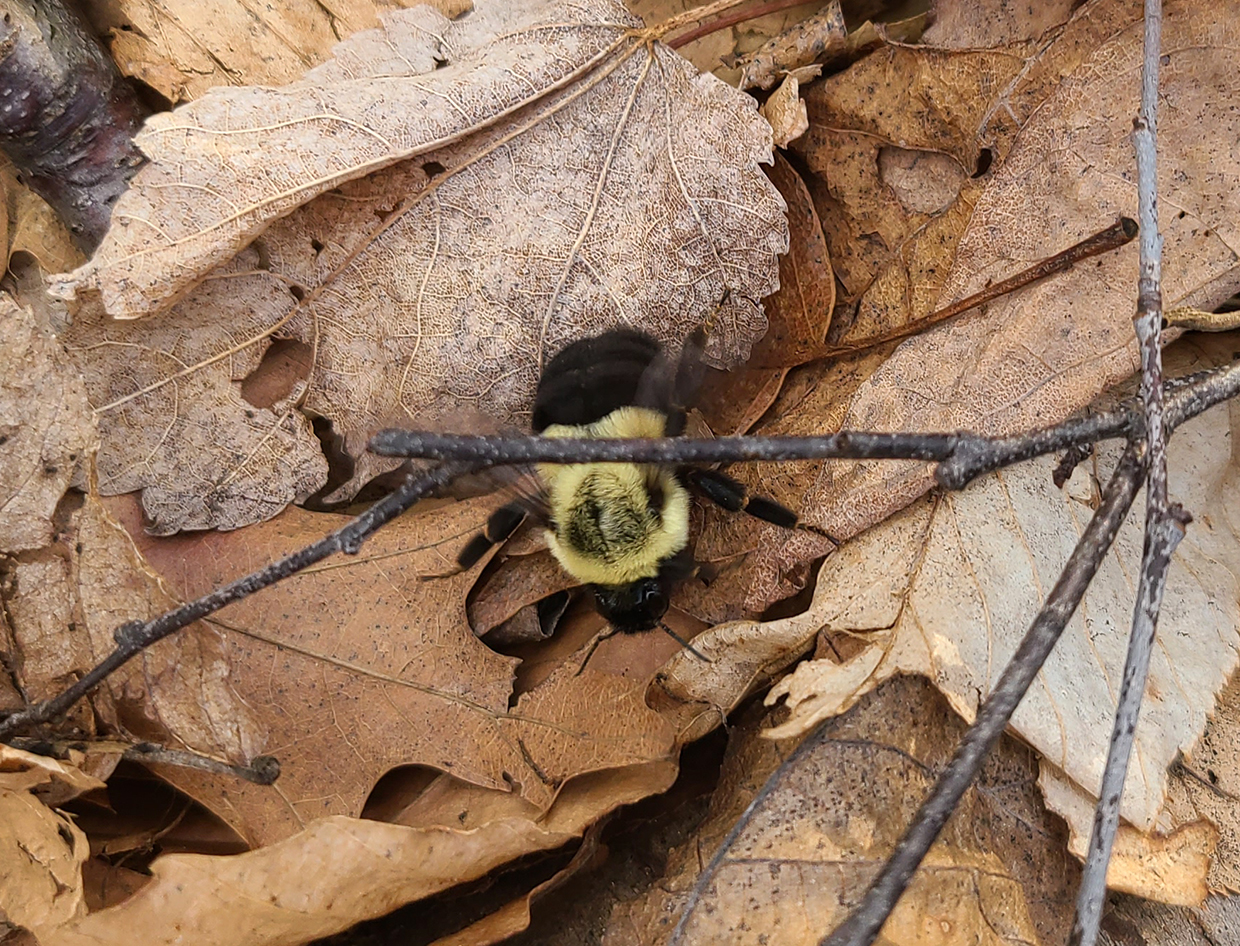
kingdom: Animalia
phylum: Arthropoda
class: Insecta
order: Hymenoptera
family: Apidae
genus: Bombus
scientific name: Bombus impatiens
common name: Common eastern bumble bee
